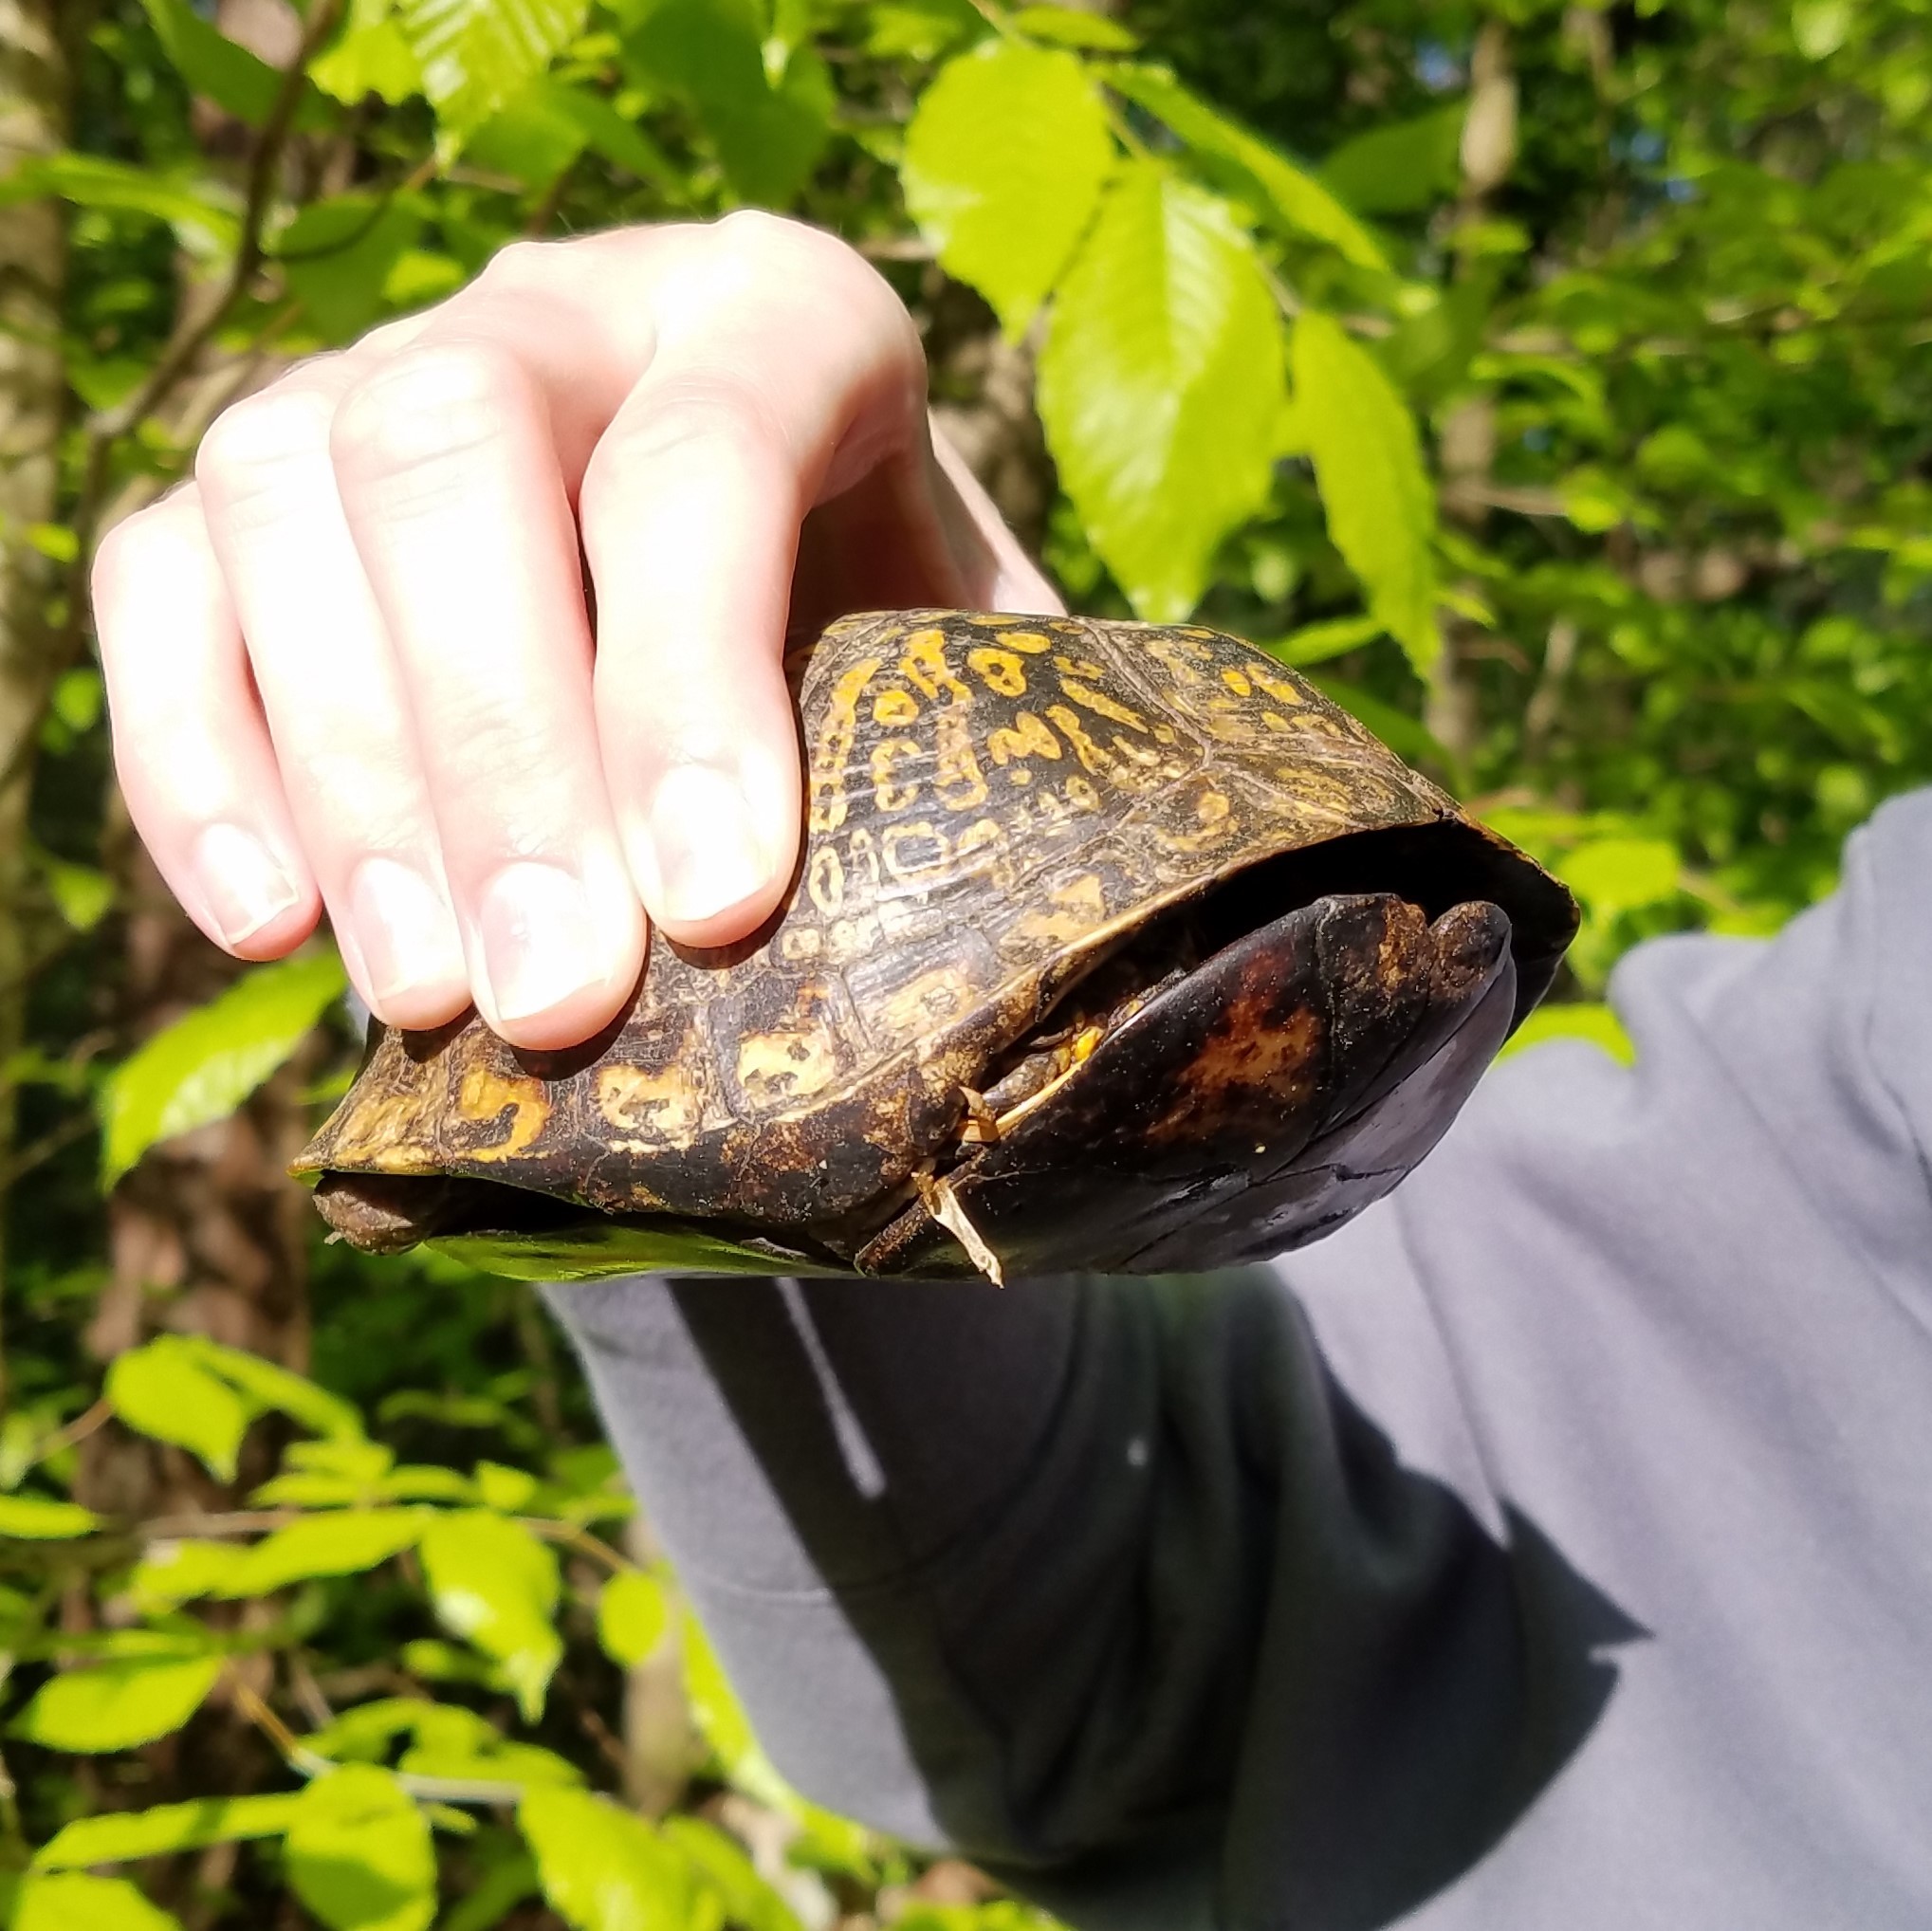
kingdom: Animalia
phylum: Chordata
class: Testudines
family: Emydidae
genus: Terrapene
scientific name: Terrapene carolina
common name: Common box turtle
